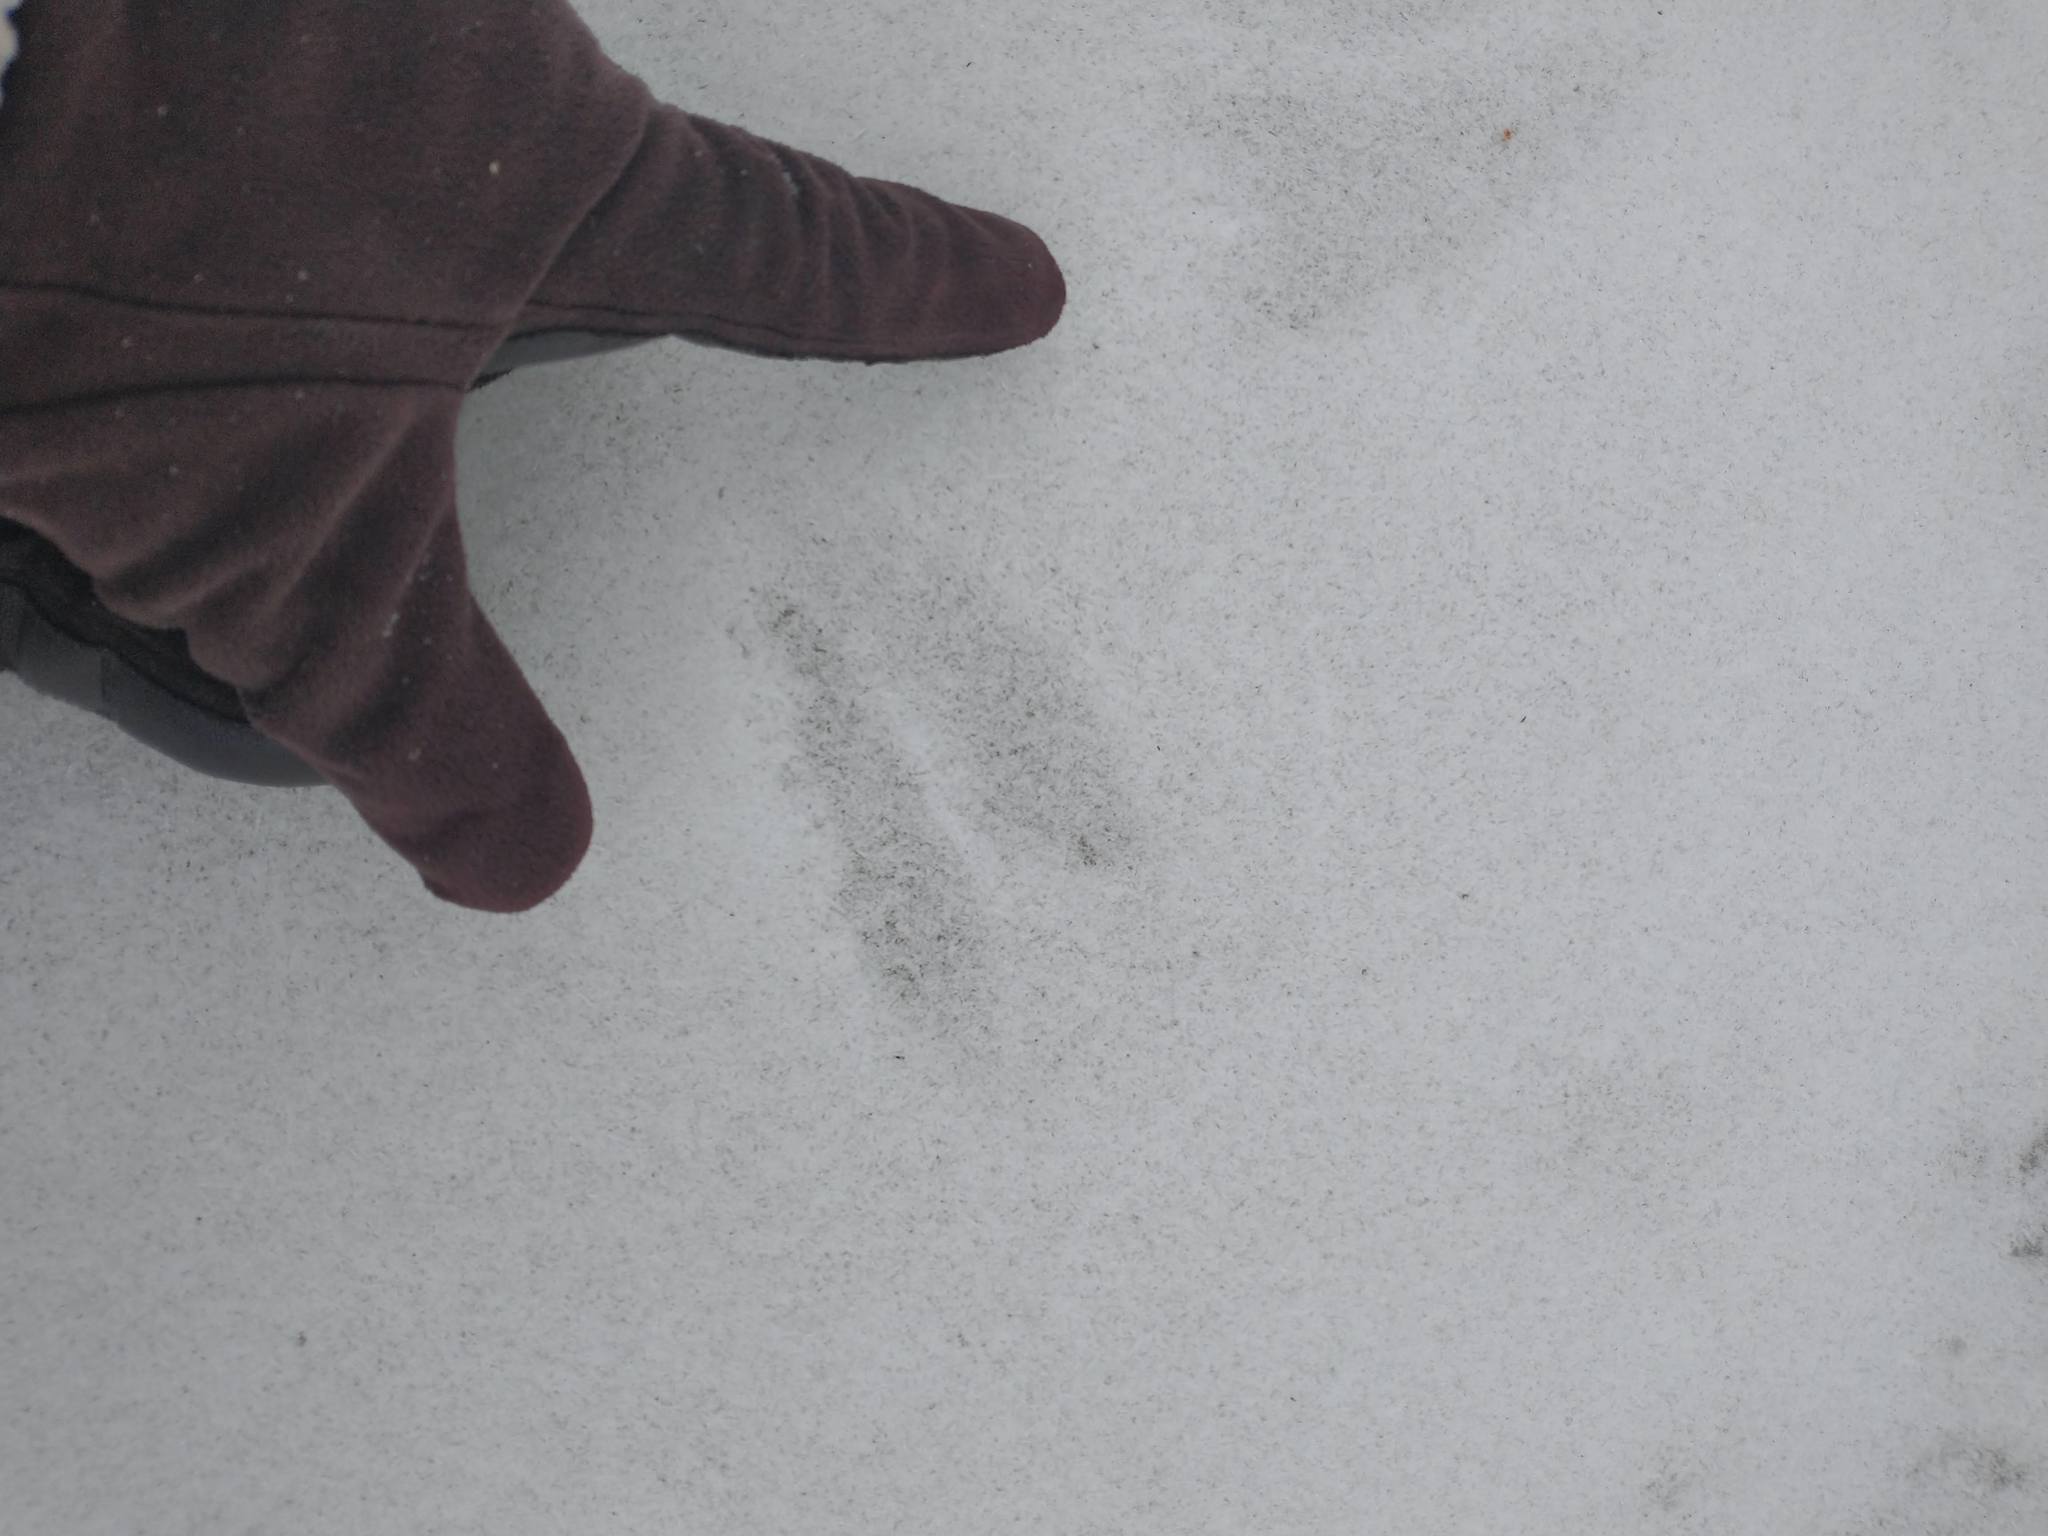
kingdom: Animalia
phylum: Chordata
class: Mammalia
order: Artiodactyla
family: Cervidae
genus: Odocoileus
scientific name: Odocoileus virginianus
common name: White-tailed deer
